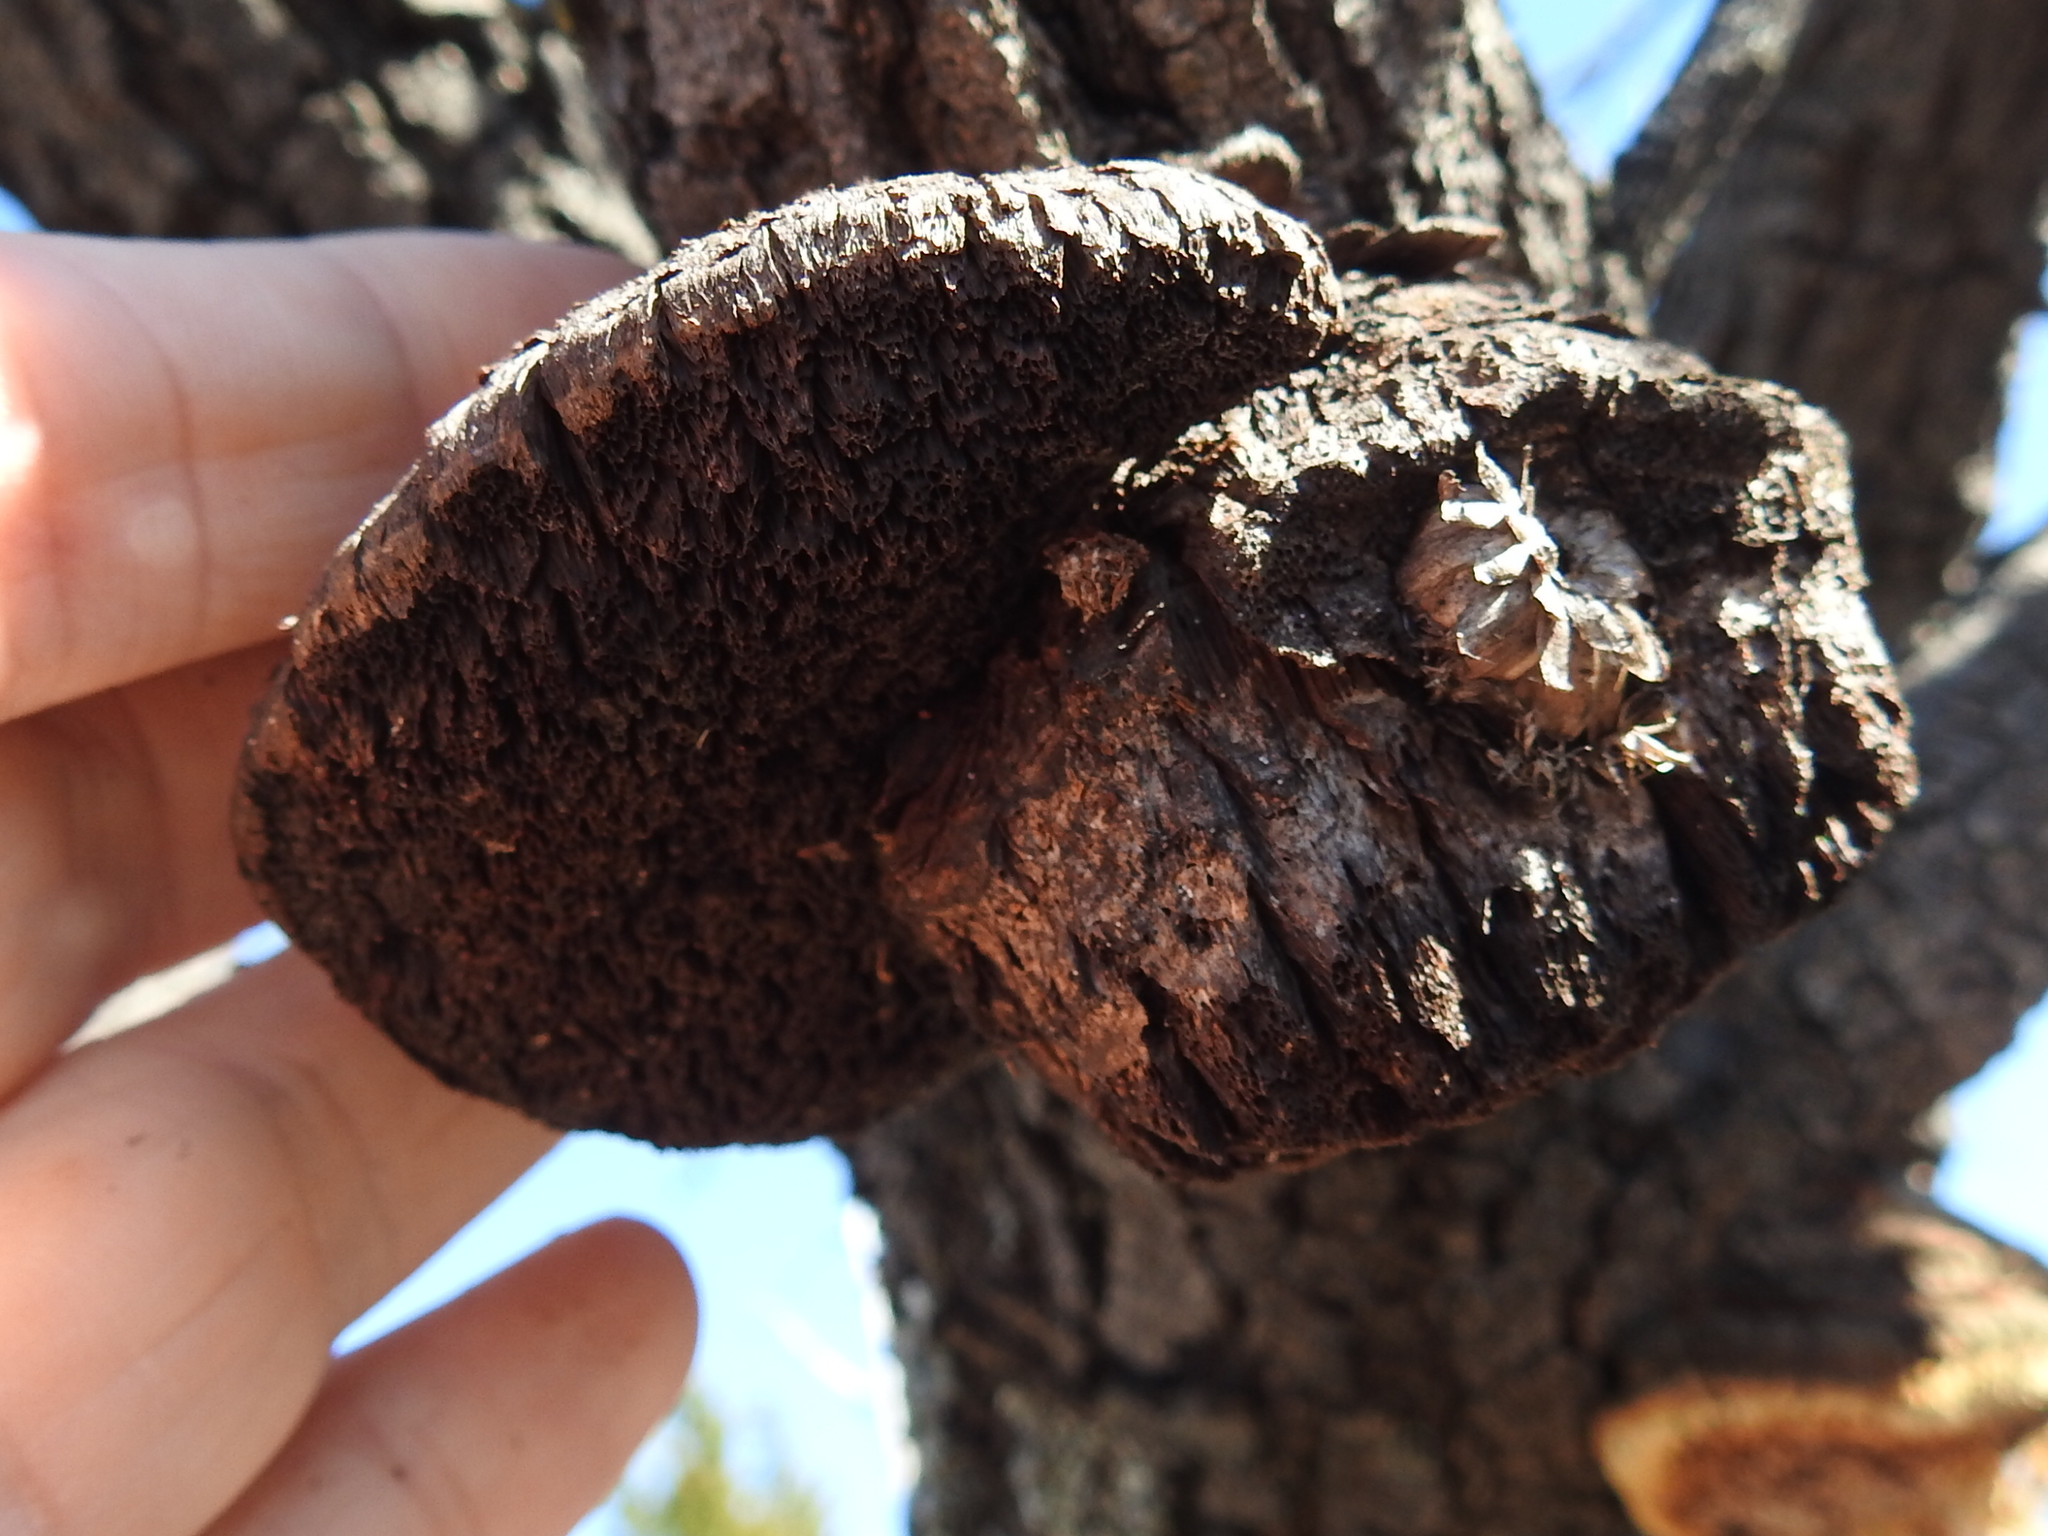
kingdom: Fungi
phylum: Basidiomycota
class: Agaricomycetes
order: Hymenochaetales
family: Hymenochaetaceae
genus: Inocutis
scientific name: Inocutis texana
